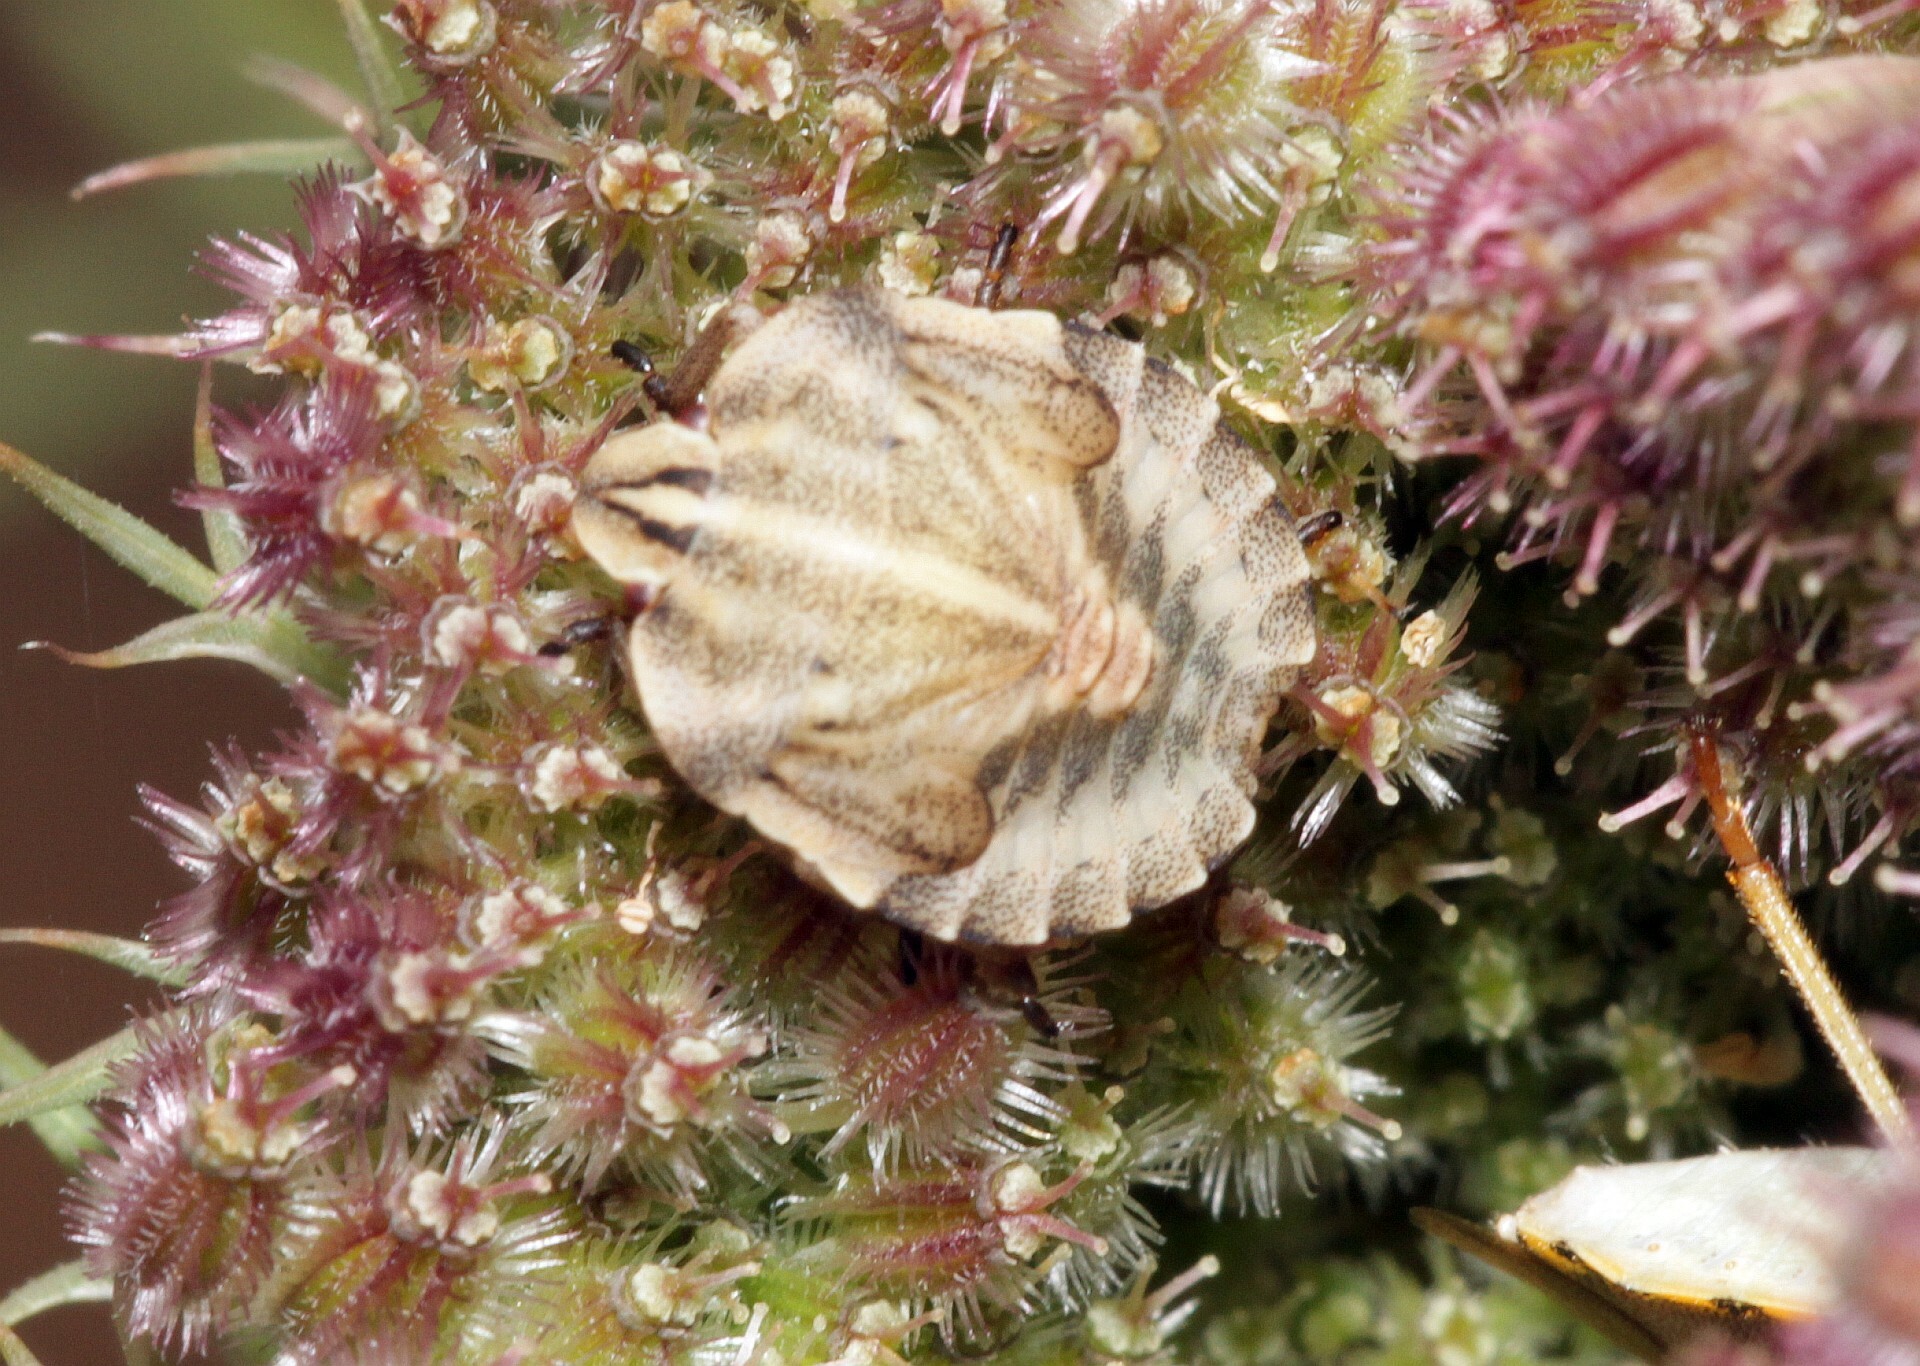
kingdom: Animalia
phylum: Arthropoda
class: Insecta
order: Hemiptera
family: Pentatomidae
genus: Graphosoma
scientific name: Graphosoma italicum
